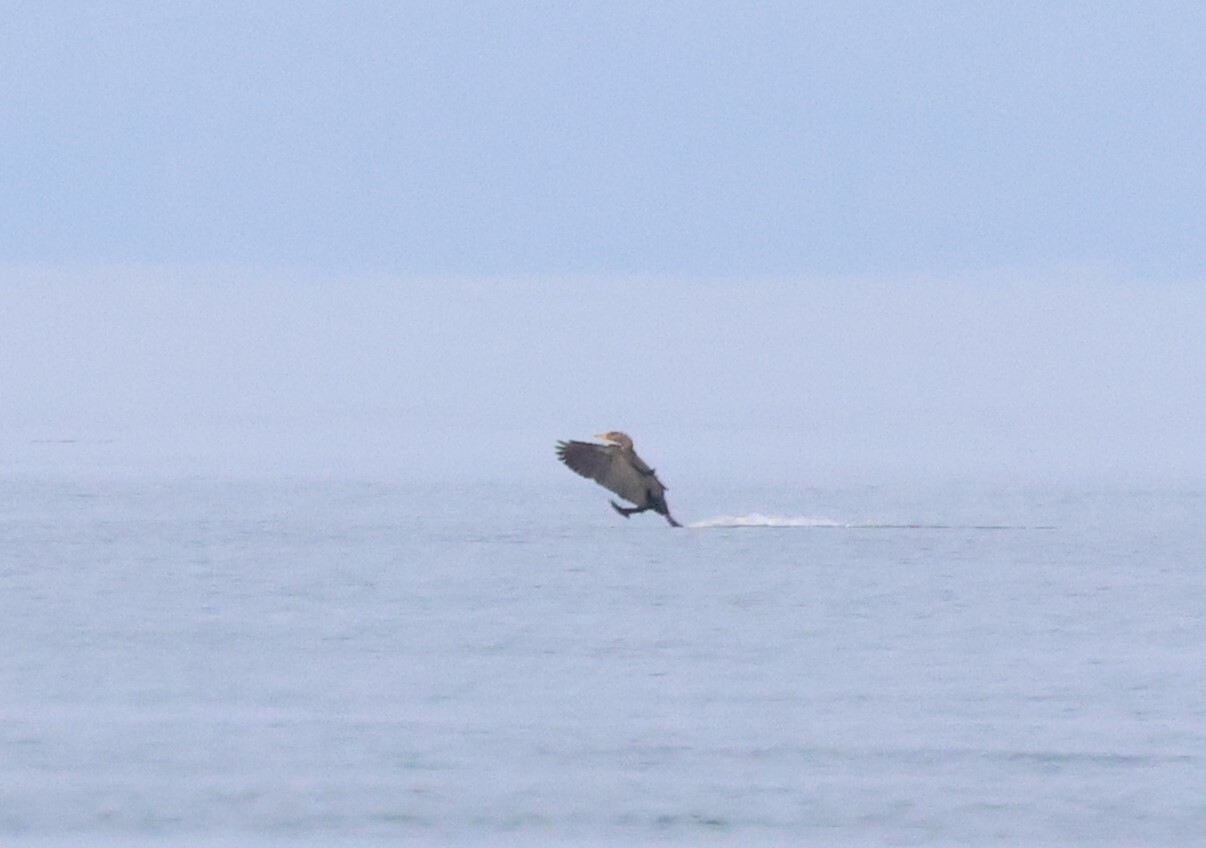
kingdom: Animalia
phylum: Chordata
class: Aves
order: Suliformes
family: Phalacrocoracidae
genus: Phalacrocorax
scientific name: Phalacrocorax auritus
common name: Double-crested cormorant
